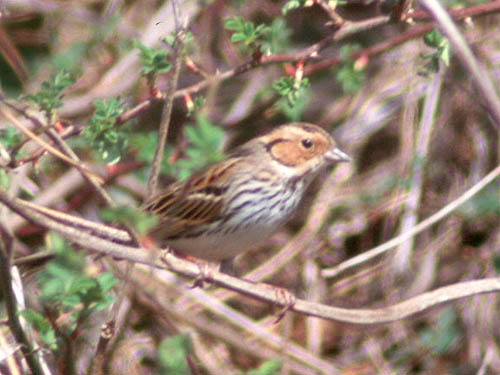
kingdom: Animalia
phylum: Chordata
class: Aves
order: Passeriformes
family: Emberizidae
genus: Emberiza
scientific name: Emberiza pusilla
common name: Little bunting
